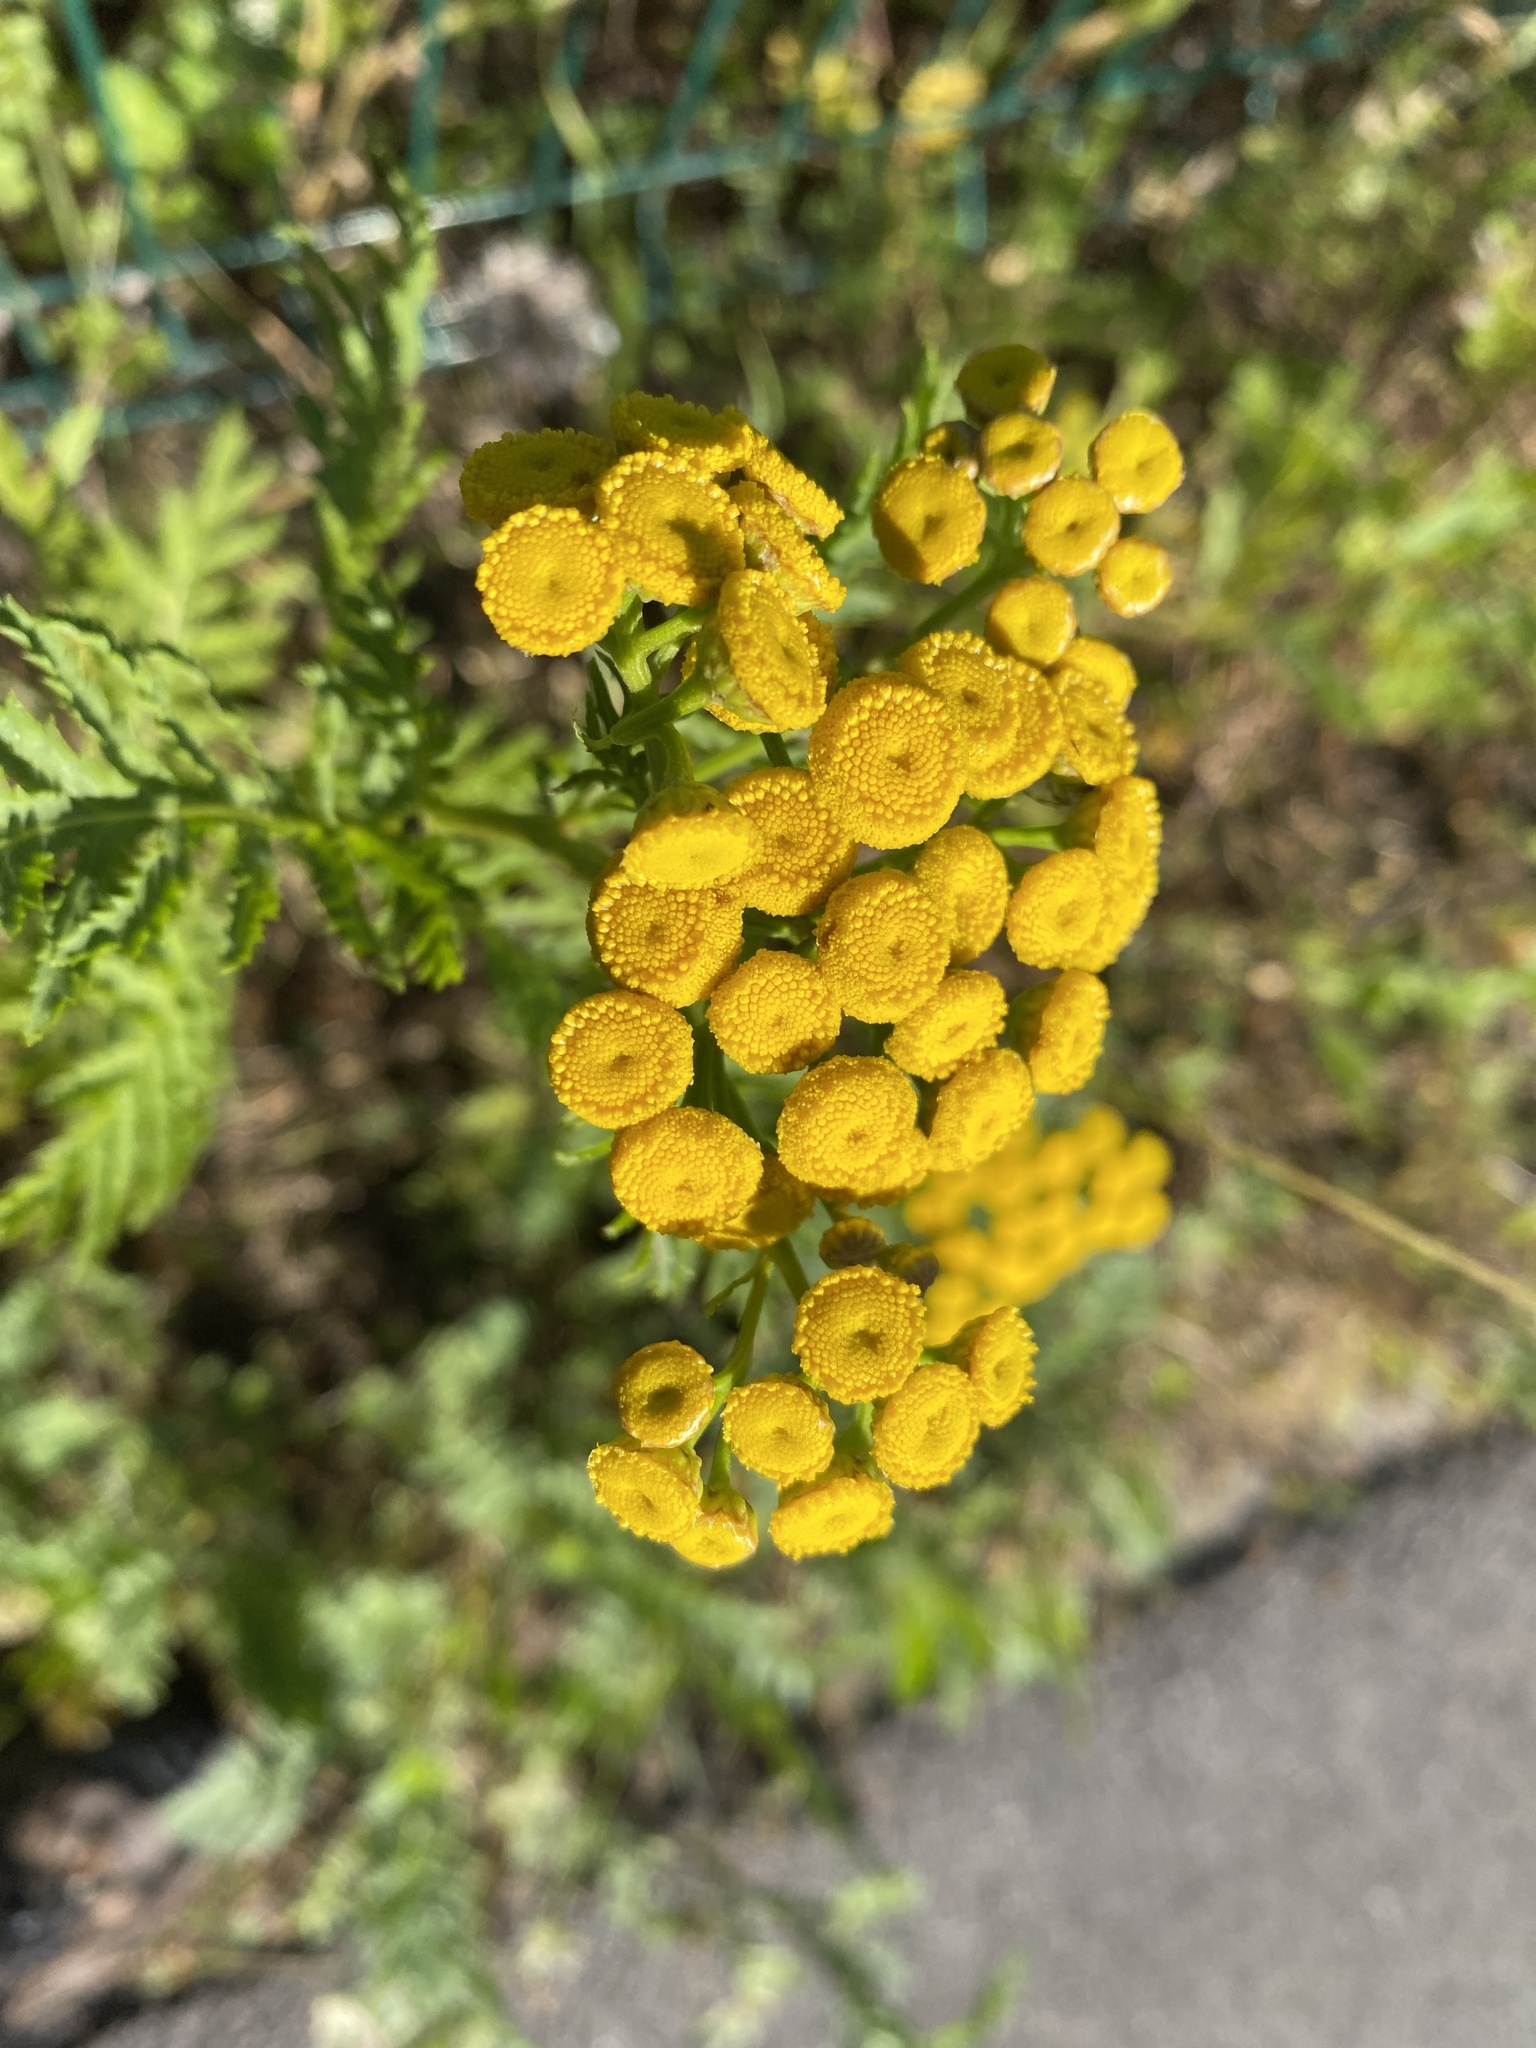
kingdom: Plantae
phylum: Tracheophyta
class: Magnoliopsida
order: Asterales
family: Asteraceae
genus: Tanacetum
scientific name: Tanacetum vulgare
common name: Common tansy
